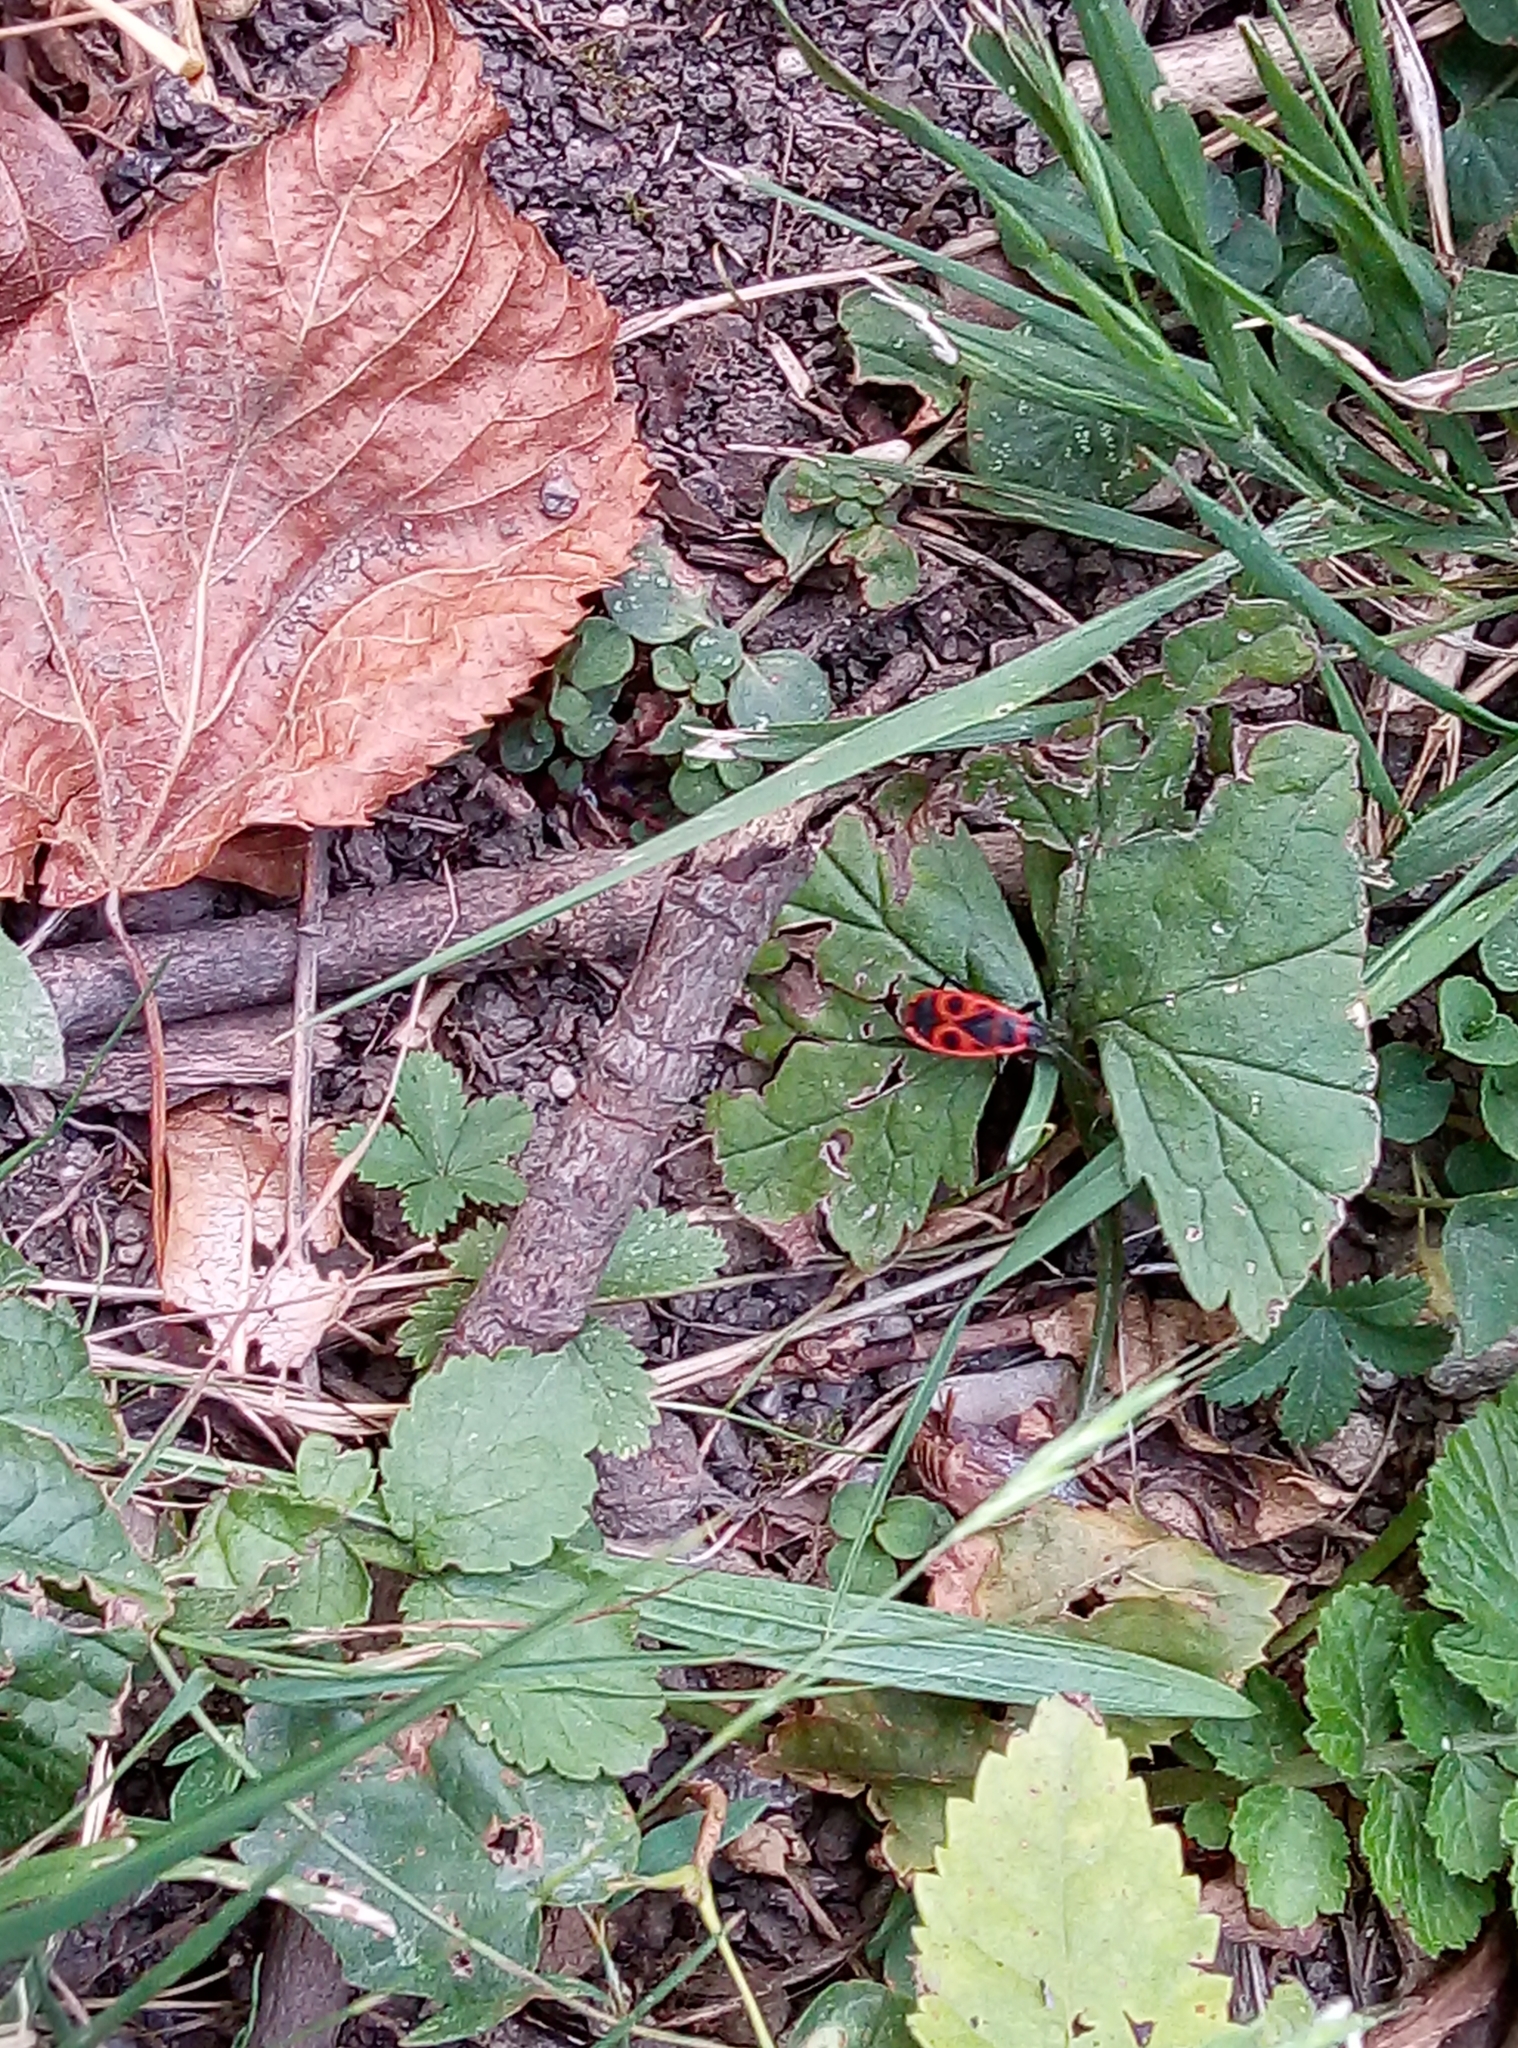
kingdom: Animalia
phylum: Arthropoda
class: Insecta
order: Hemiptera
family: Pyrrhocoridae
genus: Pyrrhocoris
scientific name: Pyrrhocoris apterus
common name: Firebug
